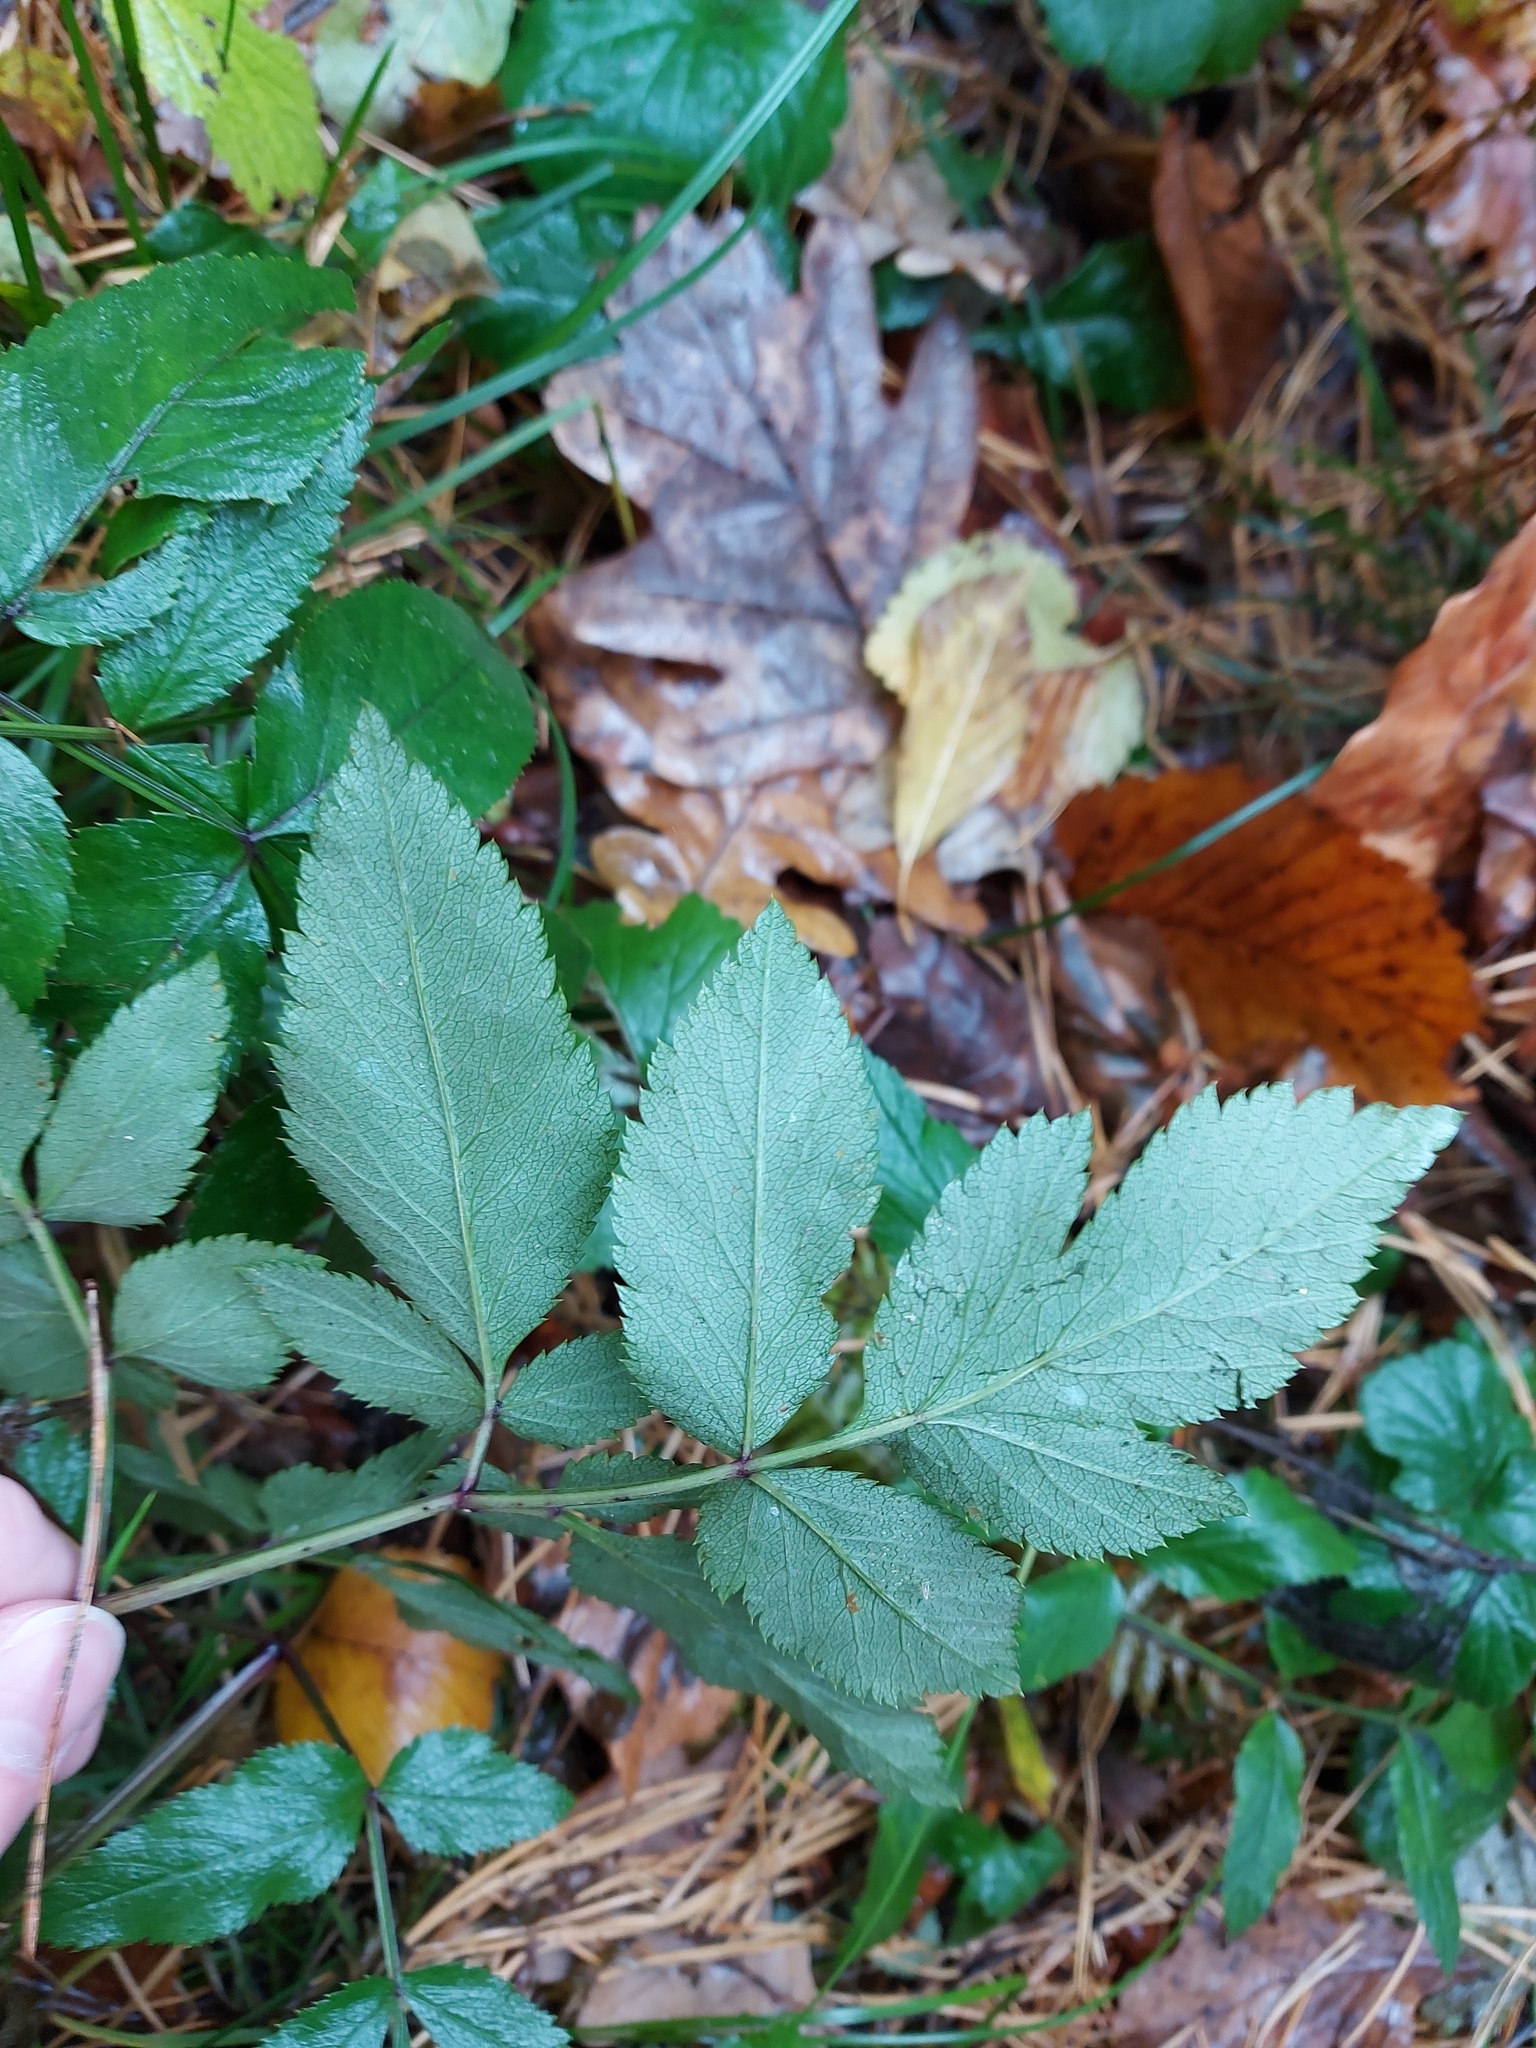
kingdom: Plantae
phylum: Tracheophyta
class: Magnoliopsida
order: Apiales
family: Apiaceae
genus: Angelica
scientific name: Angelica sylvestris
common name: Wild angelica
